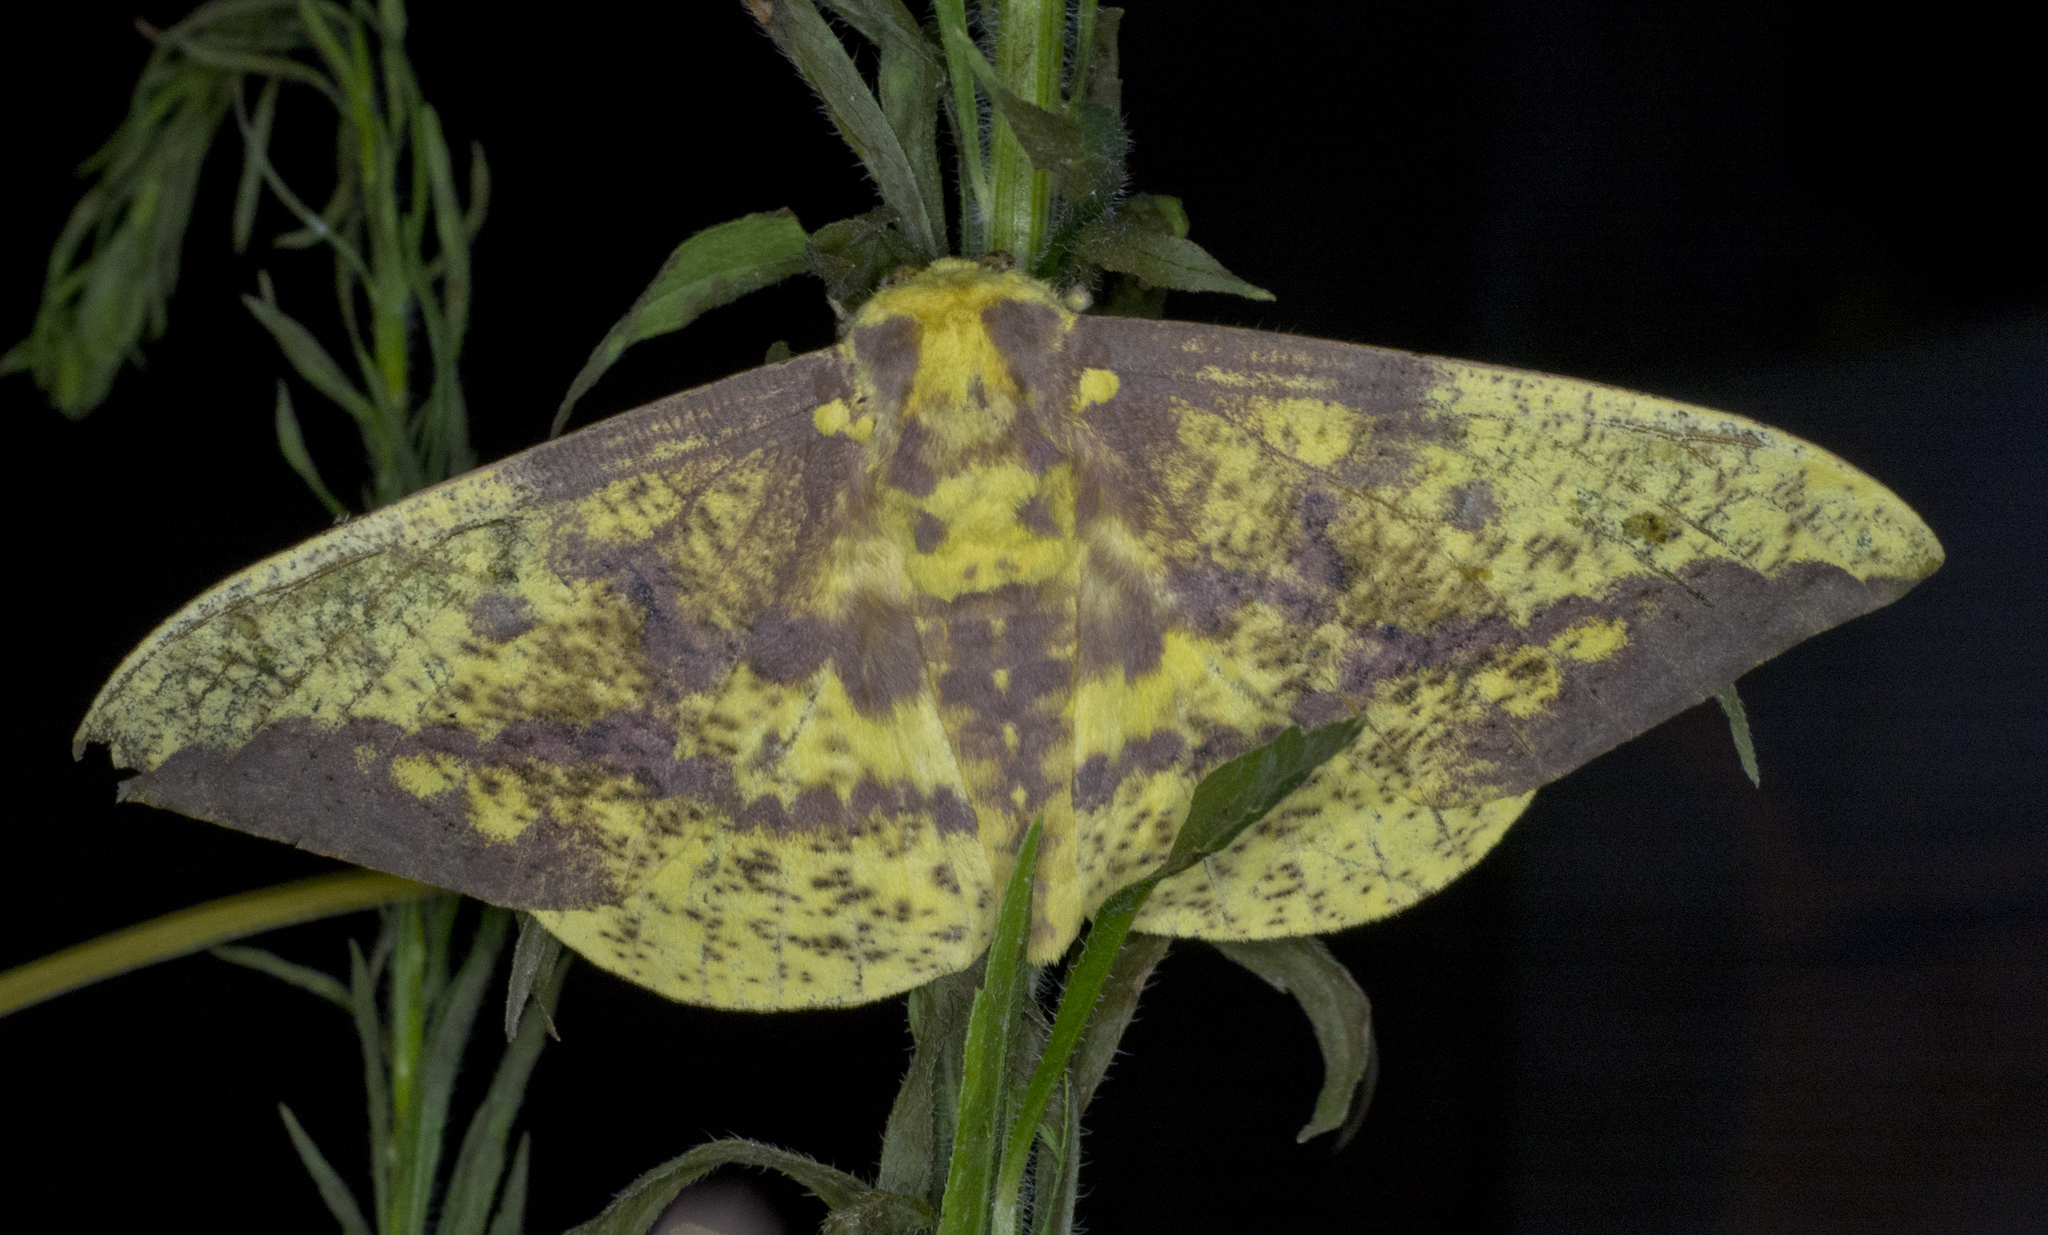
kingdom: Animalia
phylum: Arthropoda
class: Insecta
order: Lepidoptera
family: Saturniidae
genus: Eacles
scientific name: Eacles imperialis
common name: Imperial moth
